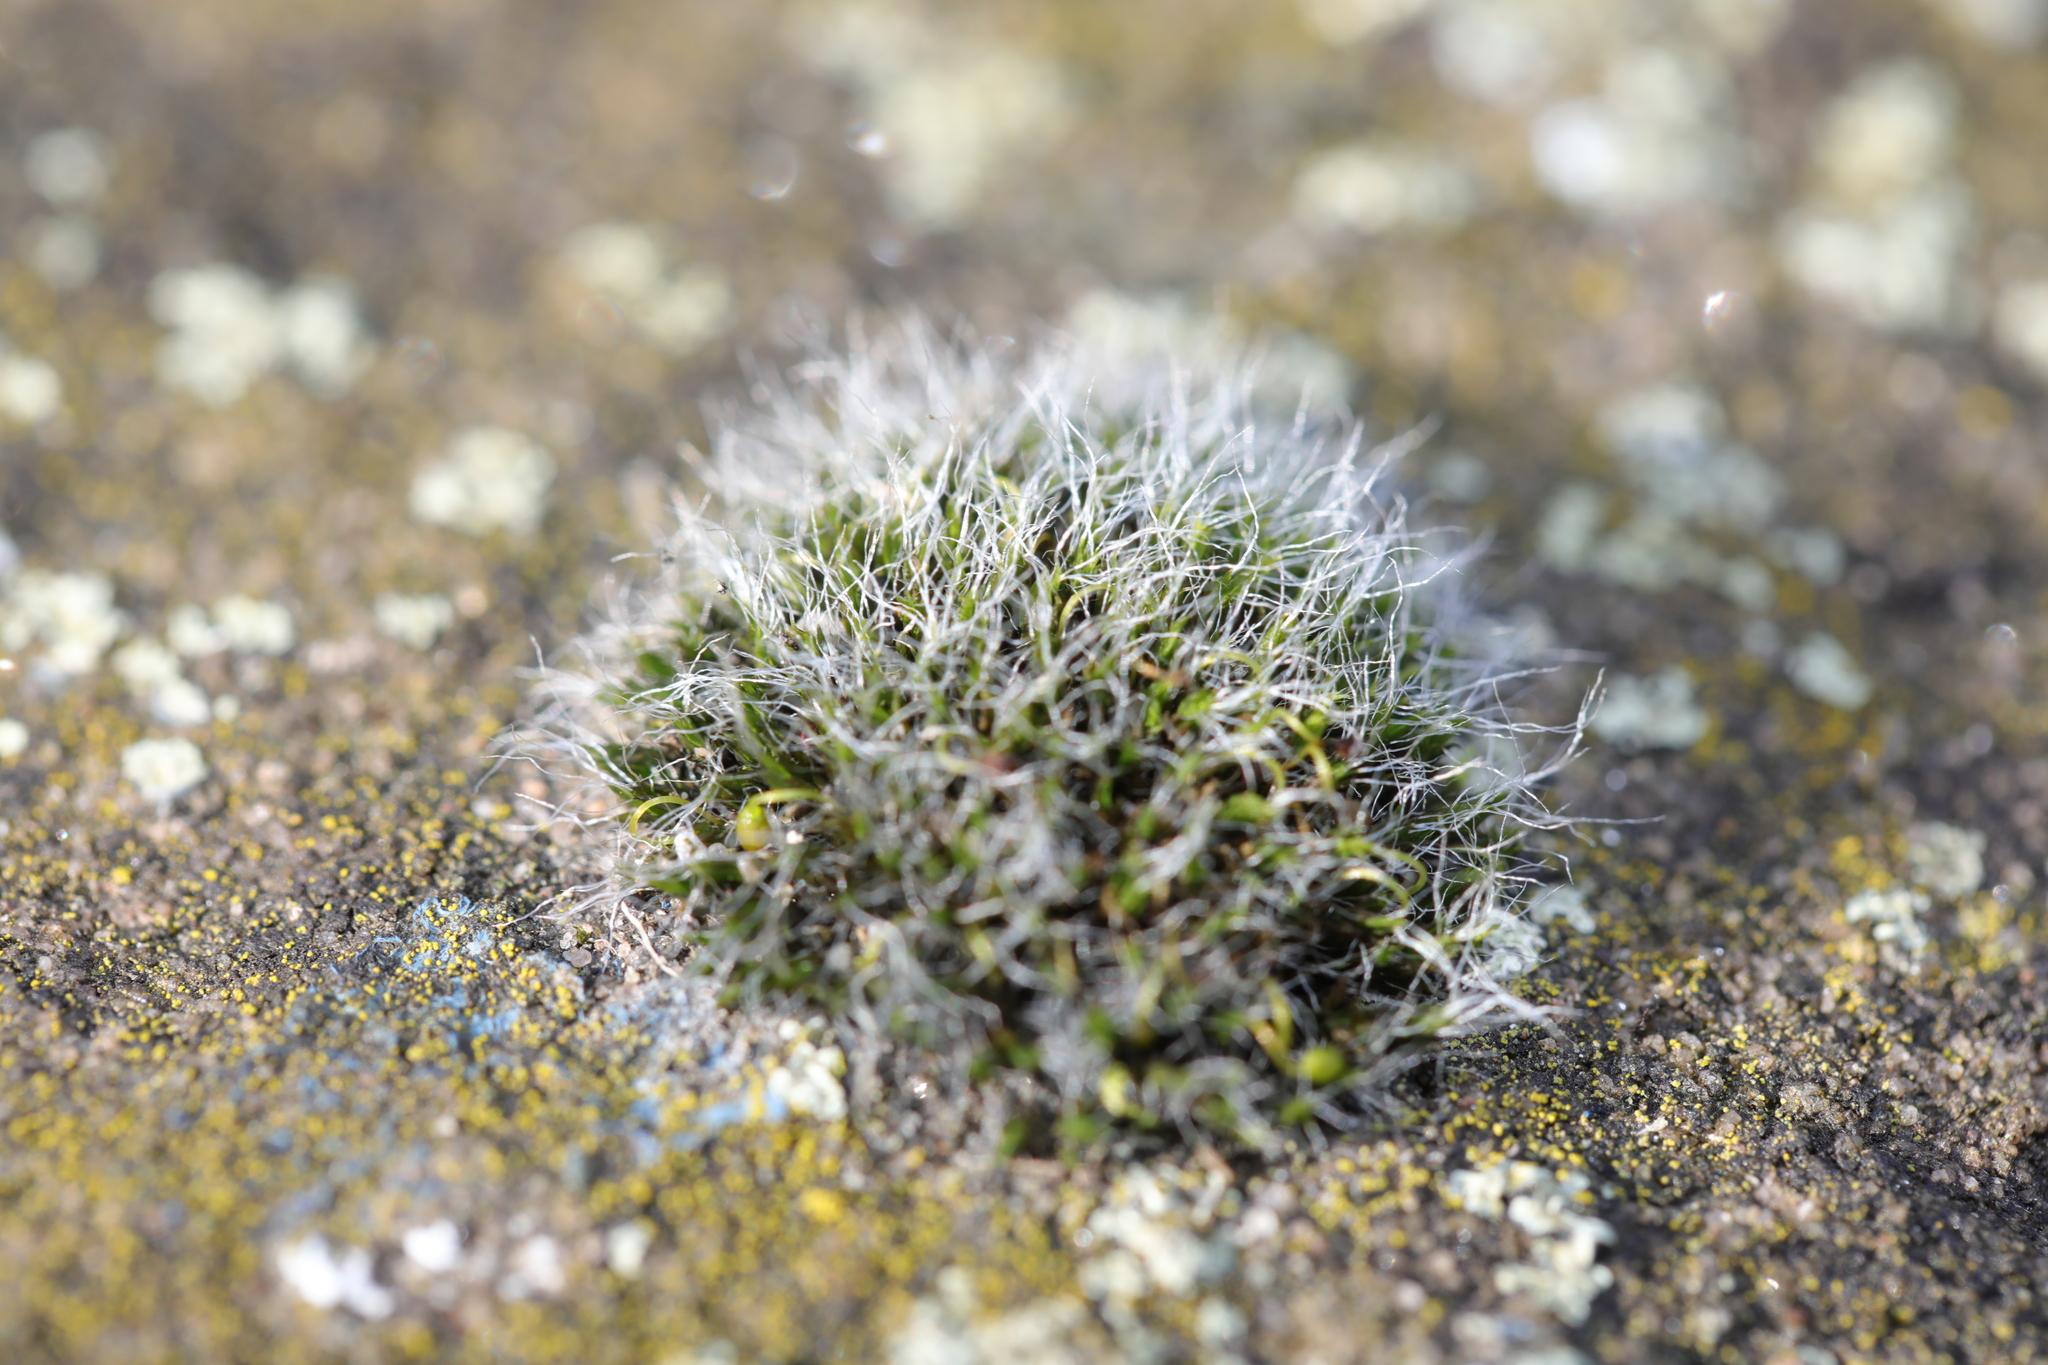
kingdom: Plantae
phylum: Bryophyta
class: Bryopsida
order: Grimmiales
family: Grimmiaceae
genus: Grimmia
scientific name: Grimmia pulvinata
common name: Grey-cushioned grimmia
